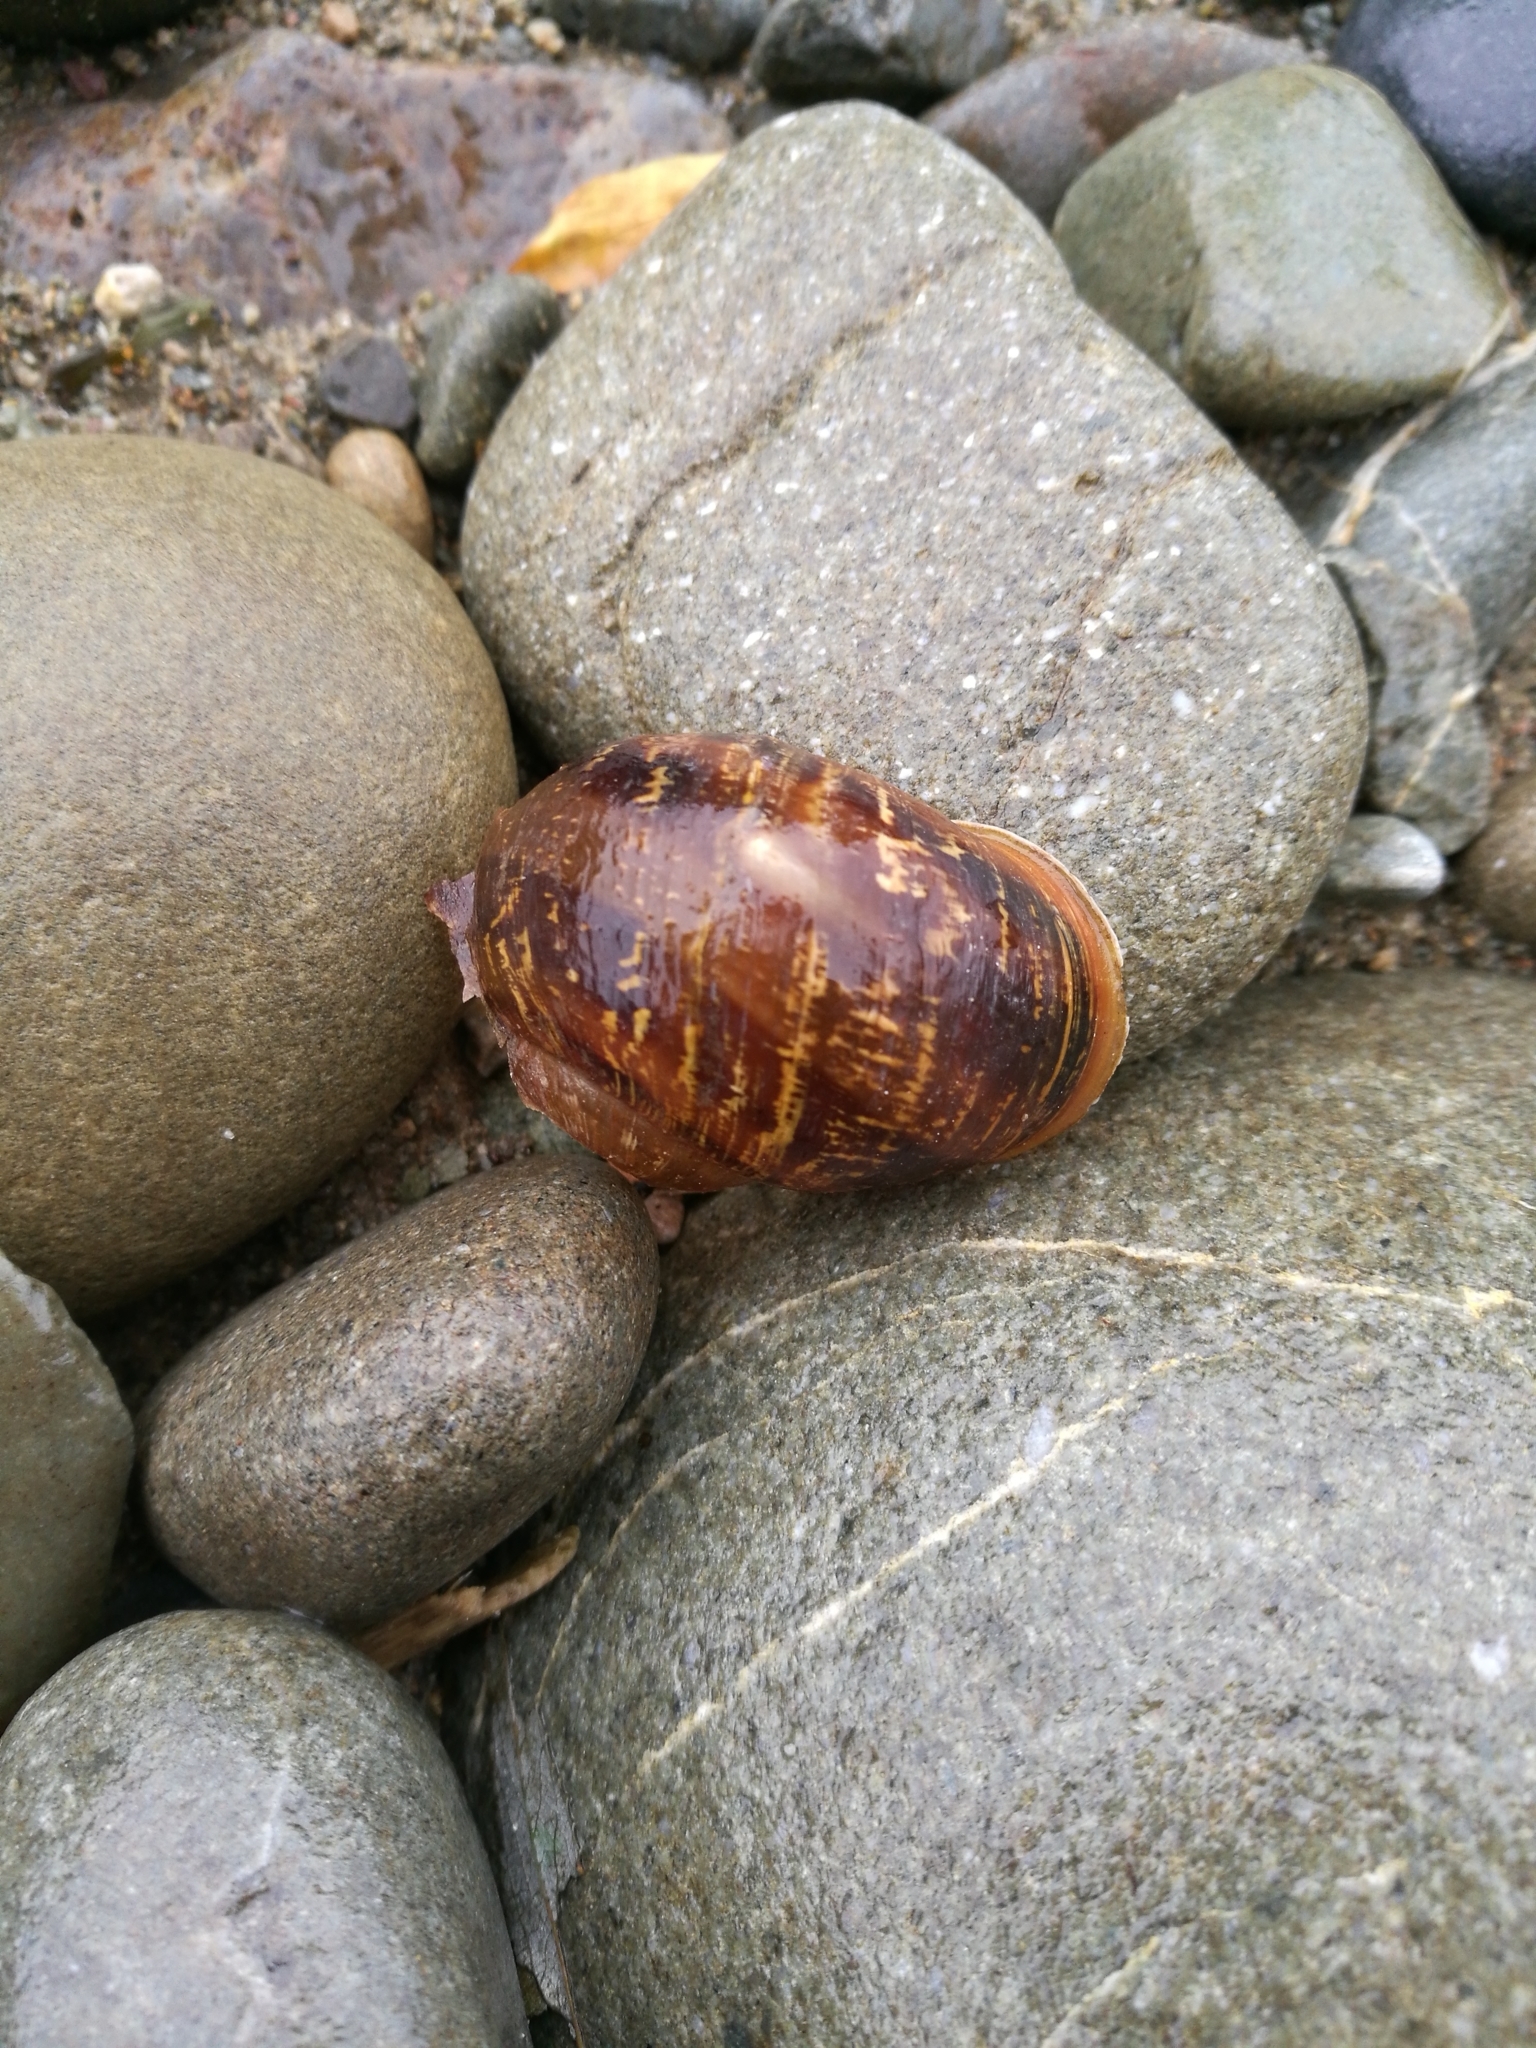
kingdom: Animalia
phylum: Mollusca
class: Gastropoda
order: Stylommatophora
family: Helicidae
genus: Cornu
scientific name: Cornu aspersum
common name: Brown garden snail
